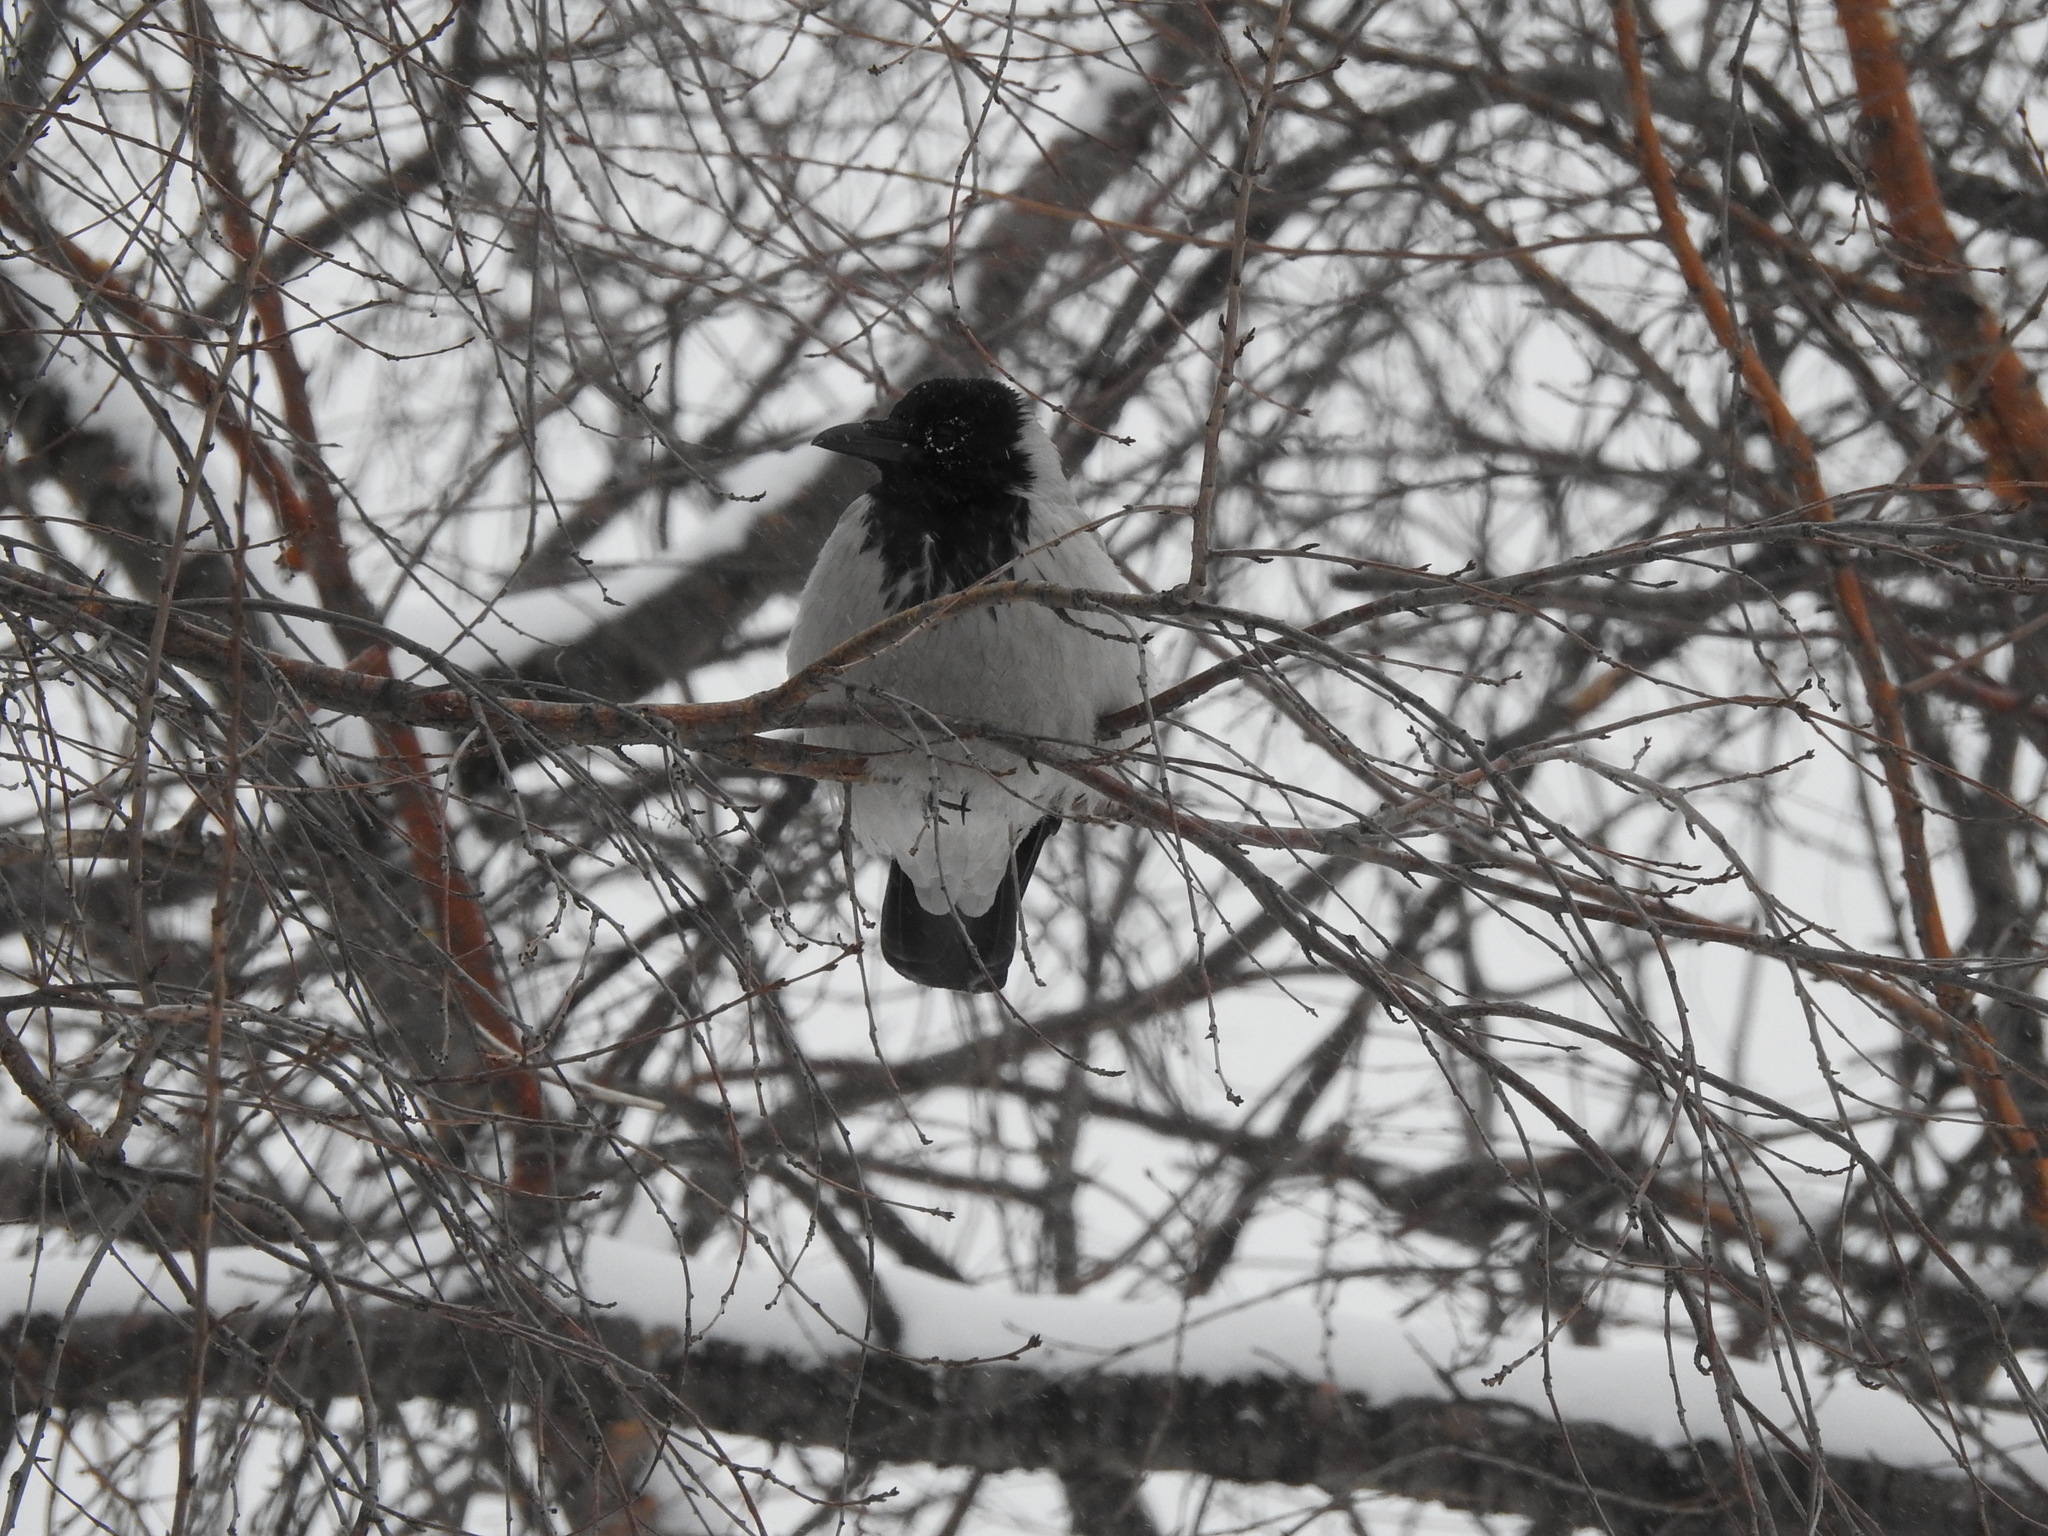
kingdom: Animalia
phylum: Chordata
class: Aves
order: Passeriformes
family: Corvidae
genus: Corvus
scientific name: Corvus cornix
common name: Hooded crow
